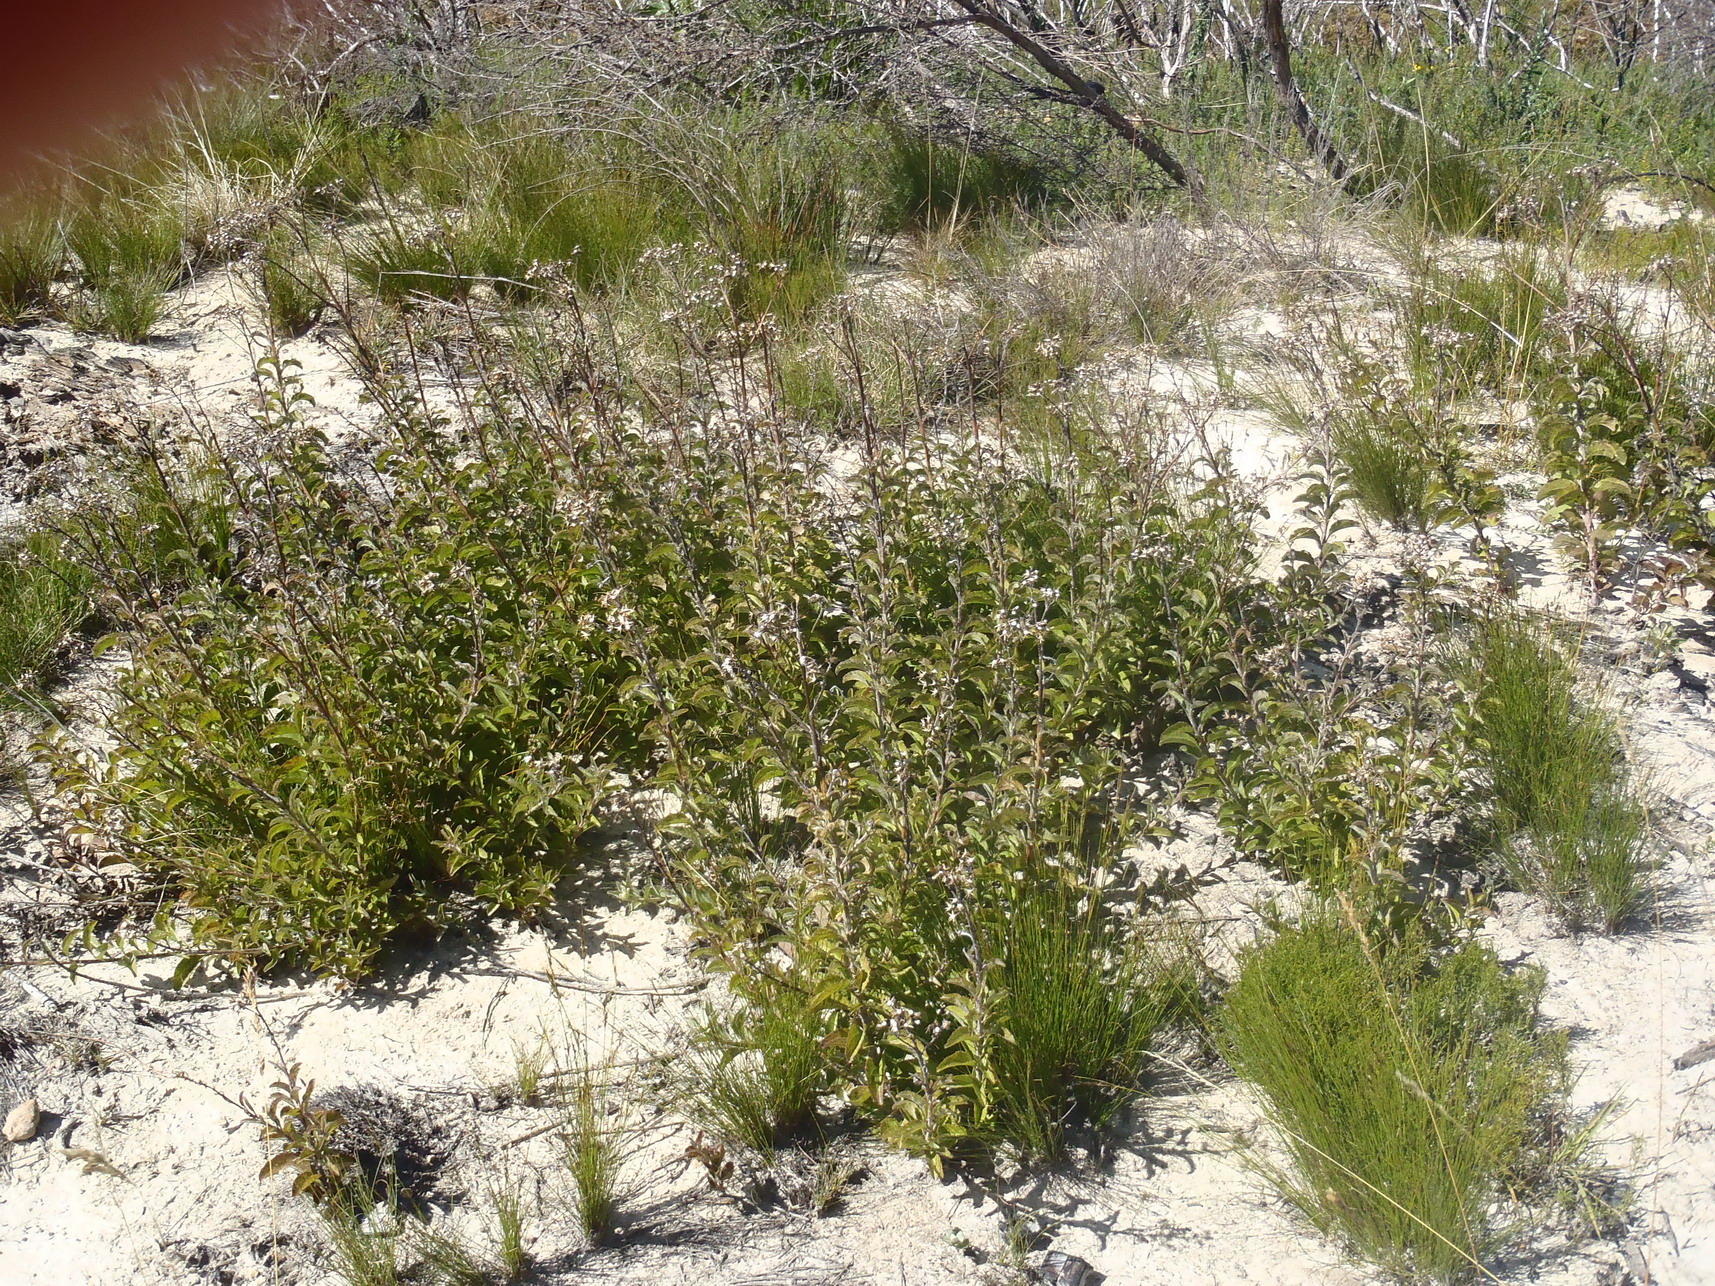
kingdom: Plantae
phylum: Tracheophyta
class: Magnoliopsida
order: Asterales
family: Asteraceae
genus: Senecio
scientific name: Senecio crenatus
